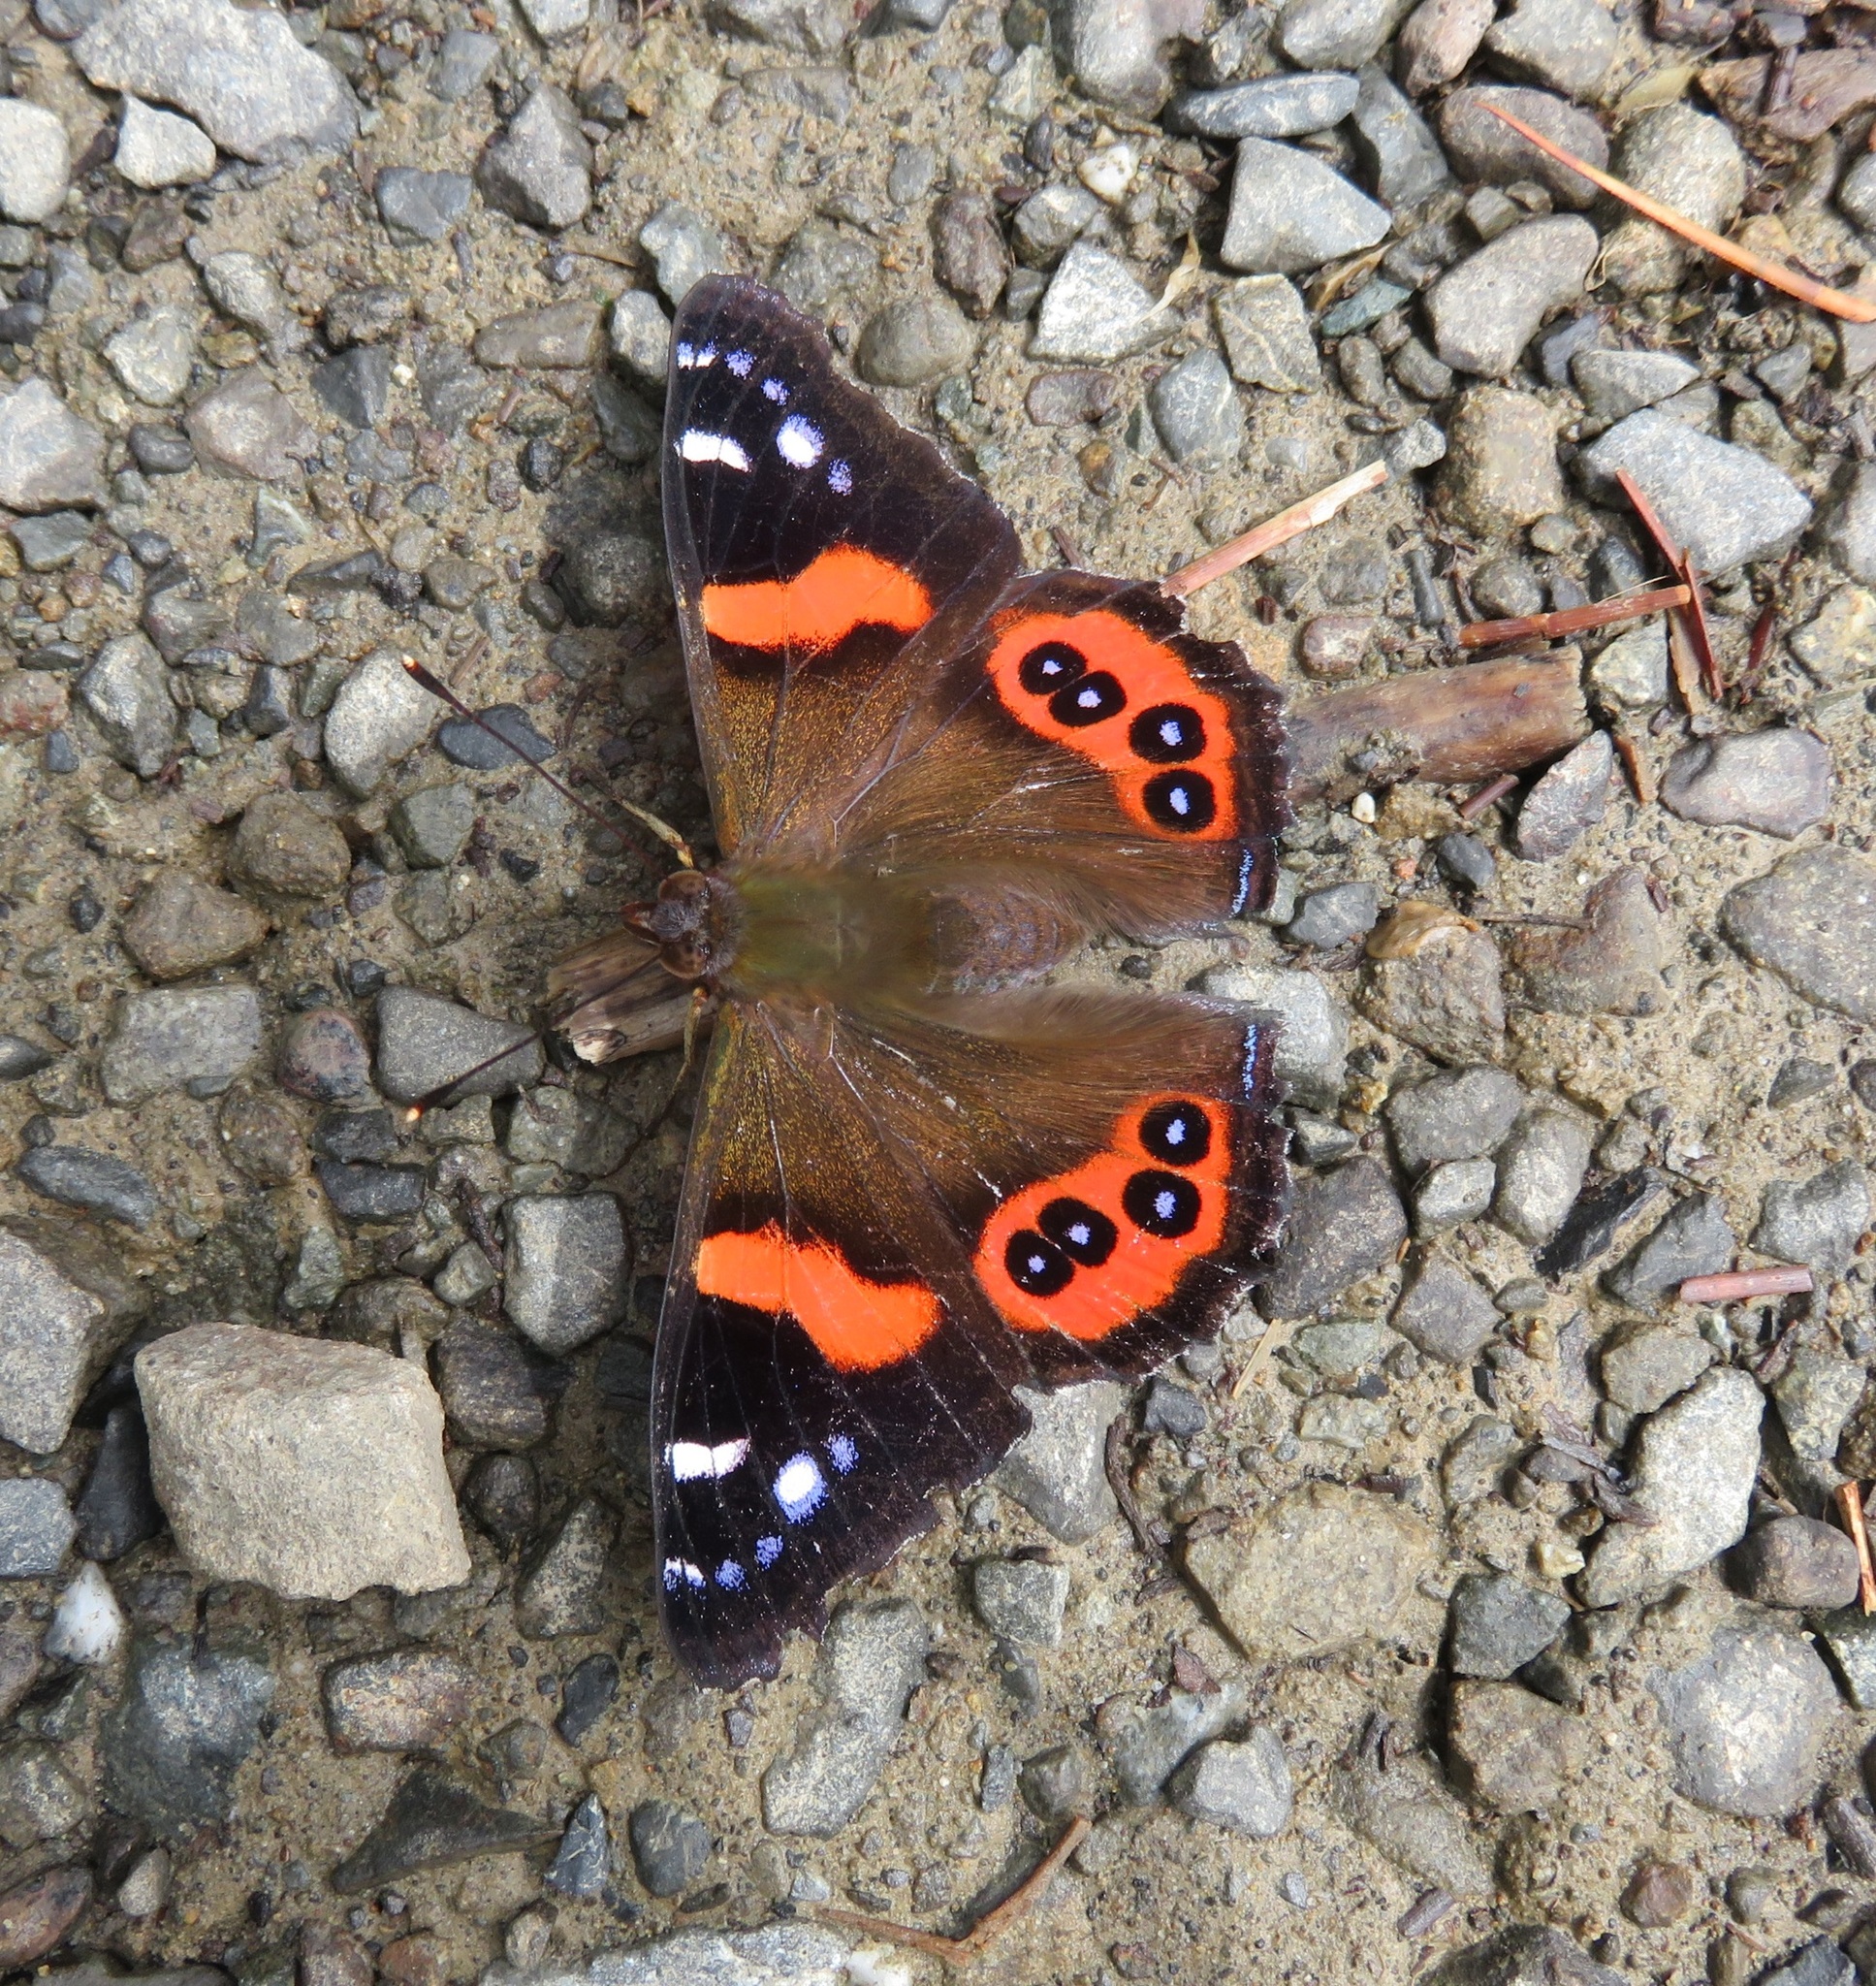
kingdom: Animalia
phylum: Arthropoda
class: Insecta
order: Lepidoptera
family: Nymphalidae
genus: Vanessa
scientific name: Vanessa gonerilla
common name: New zealand red admiral
